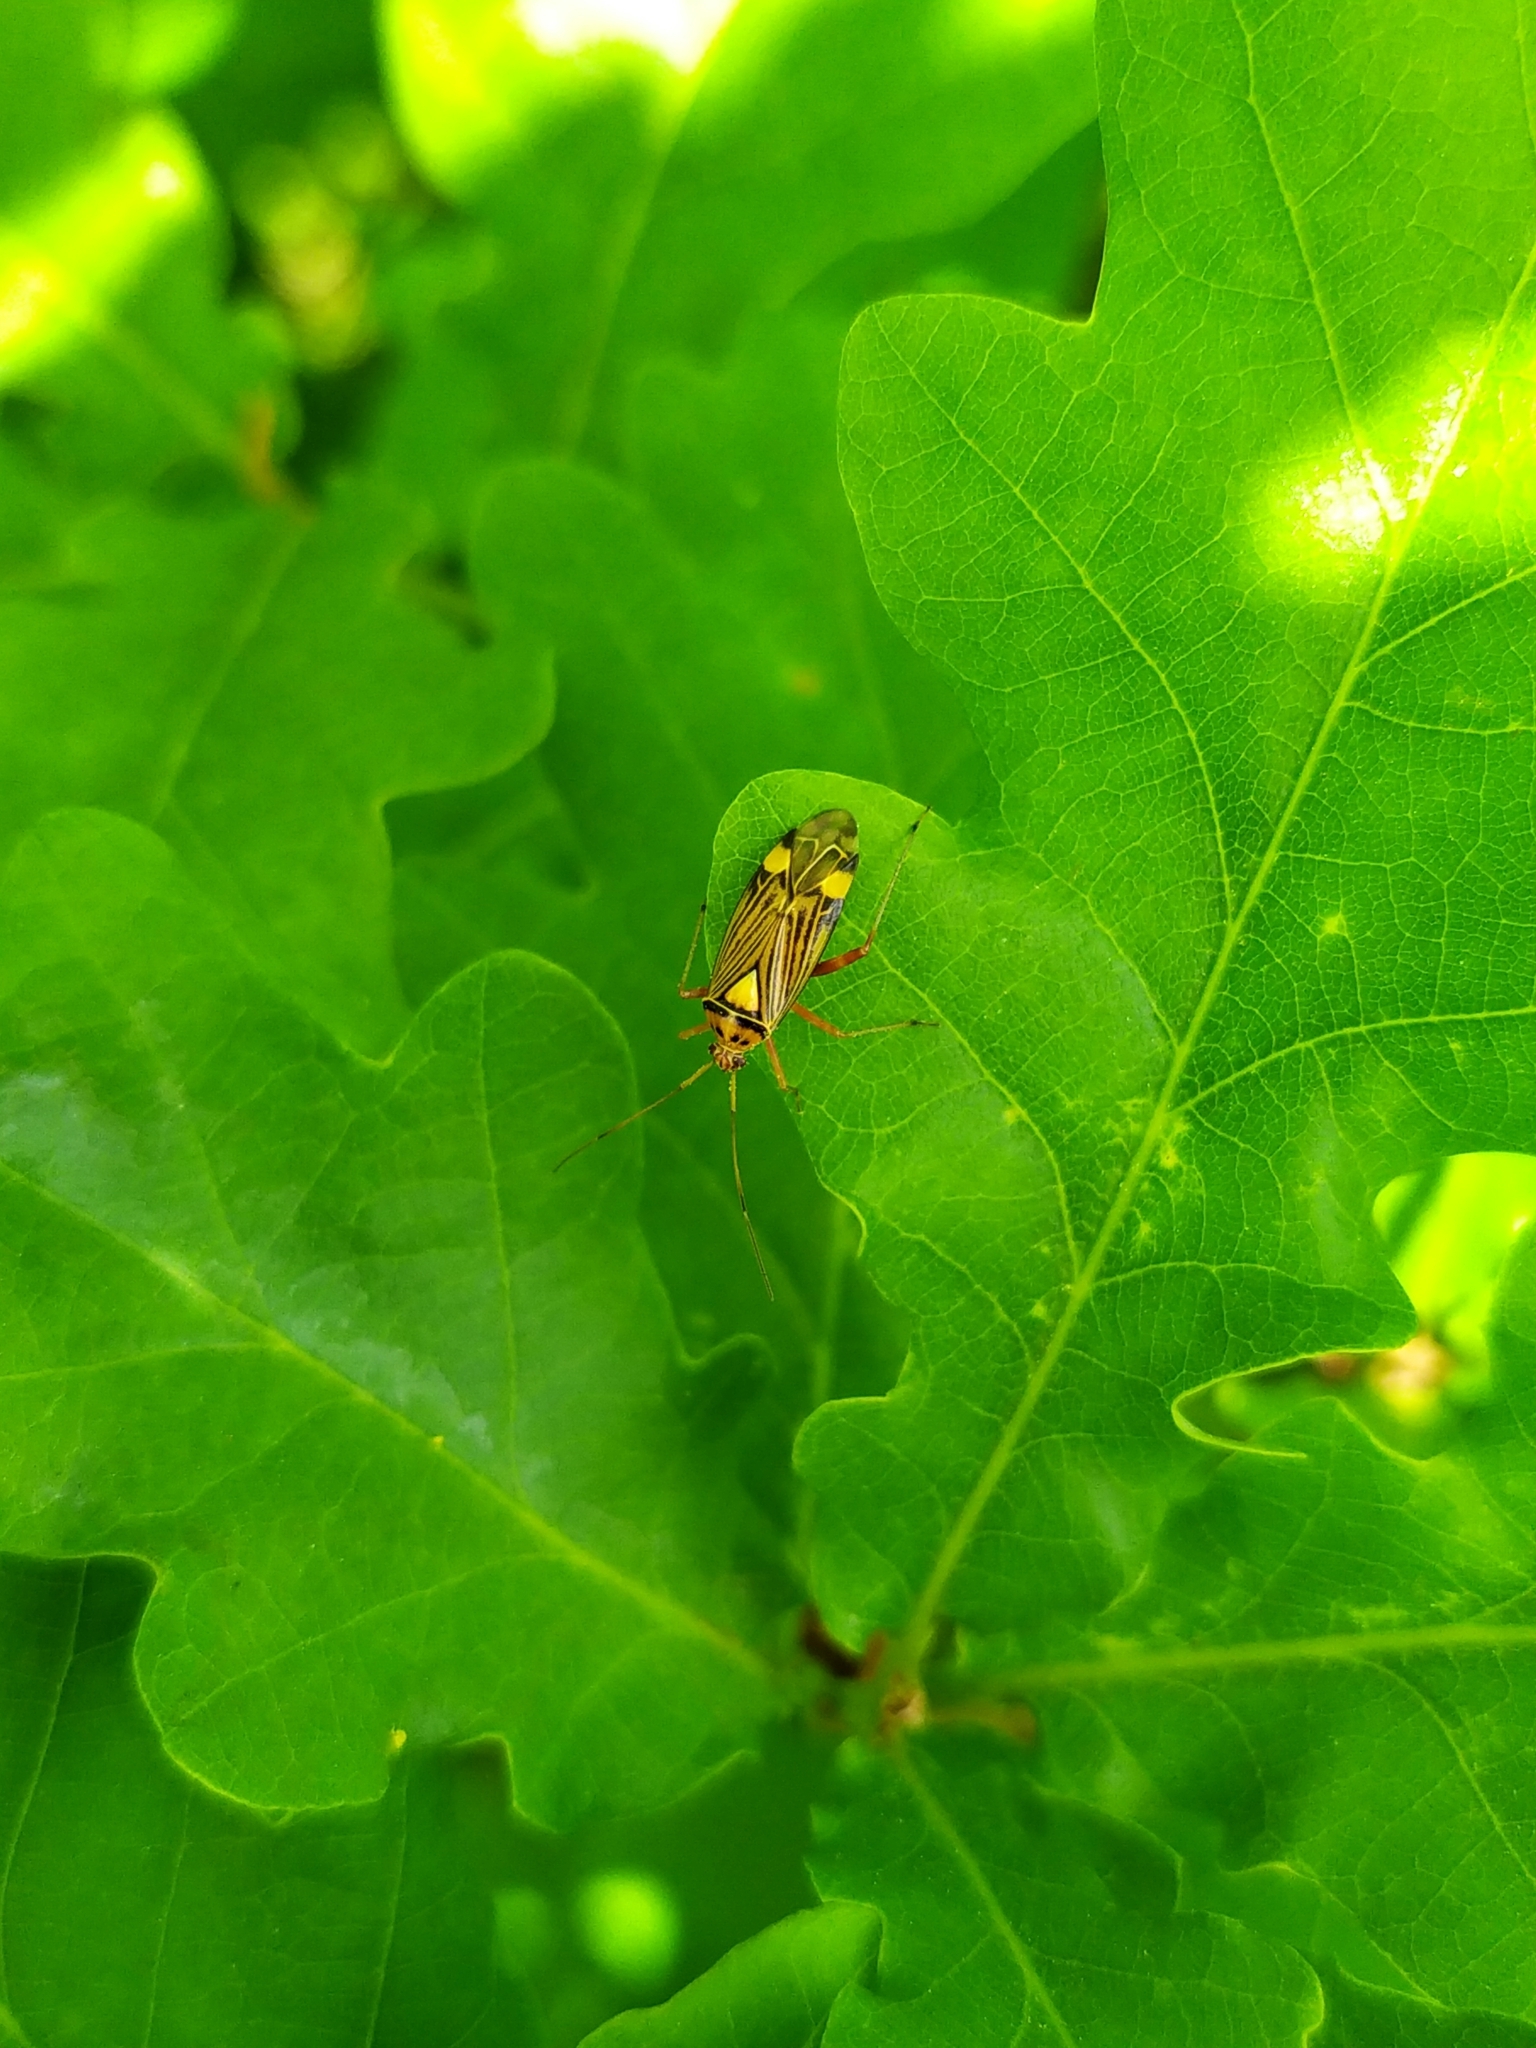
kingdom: Animalia
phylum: Arthropoda
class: Insecta
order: Hemiptera
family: Miridae
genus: Rhabdomiris
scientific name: Rhabdomiris striatellus
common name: Plant bug
